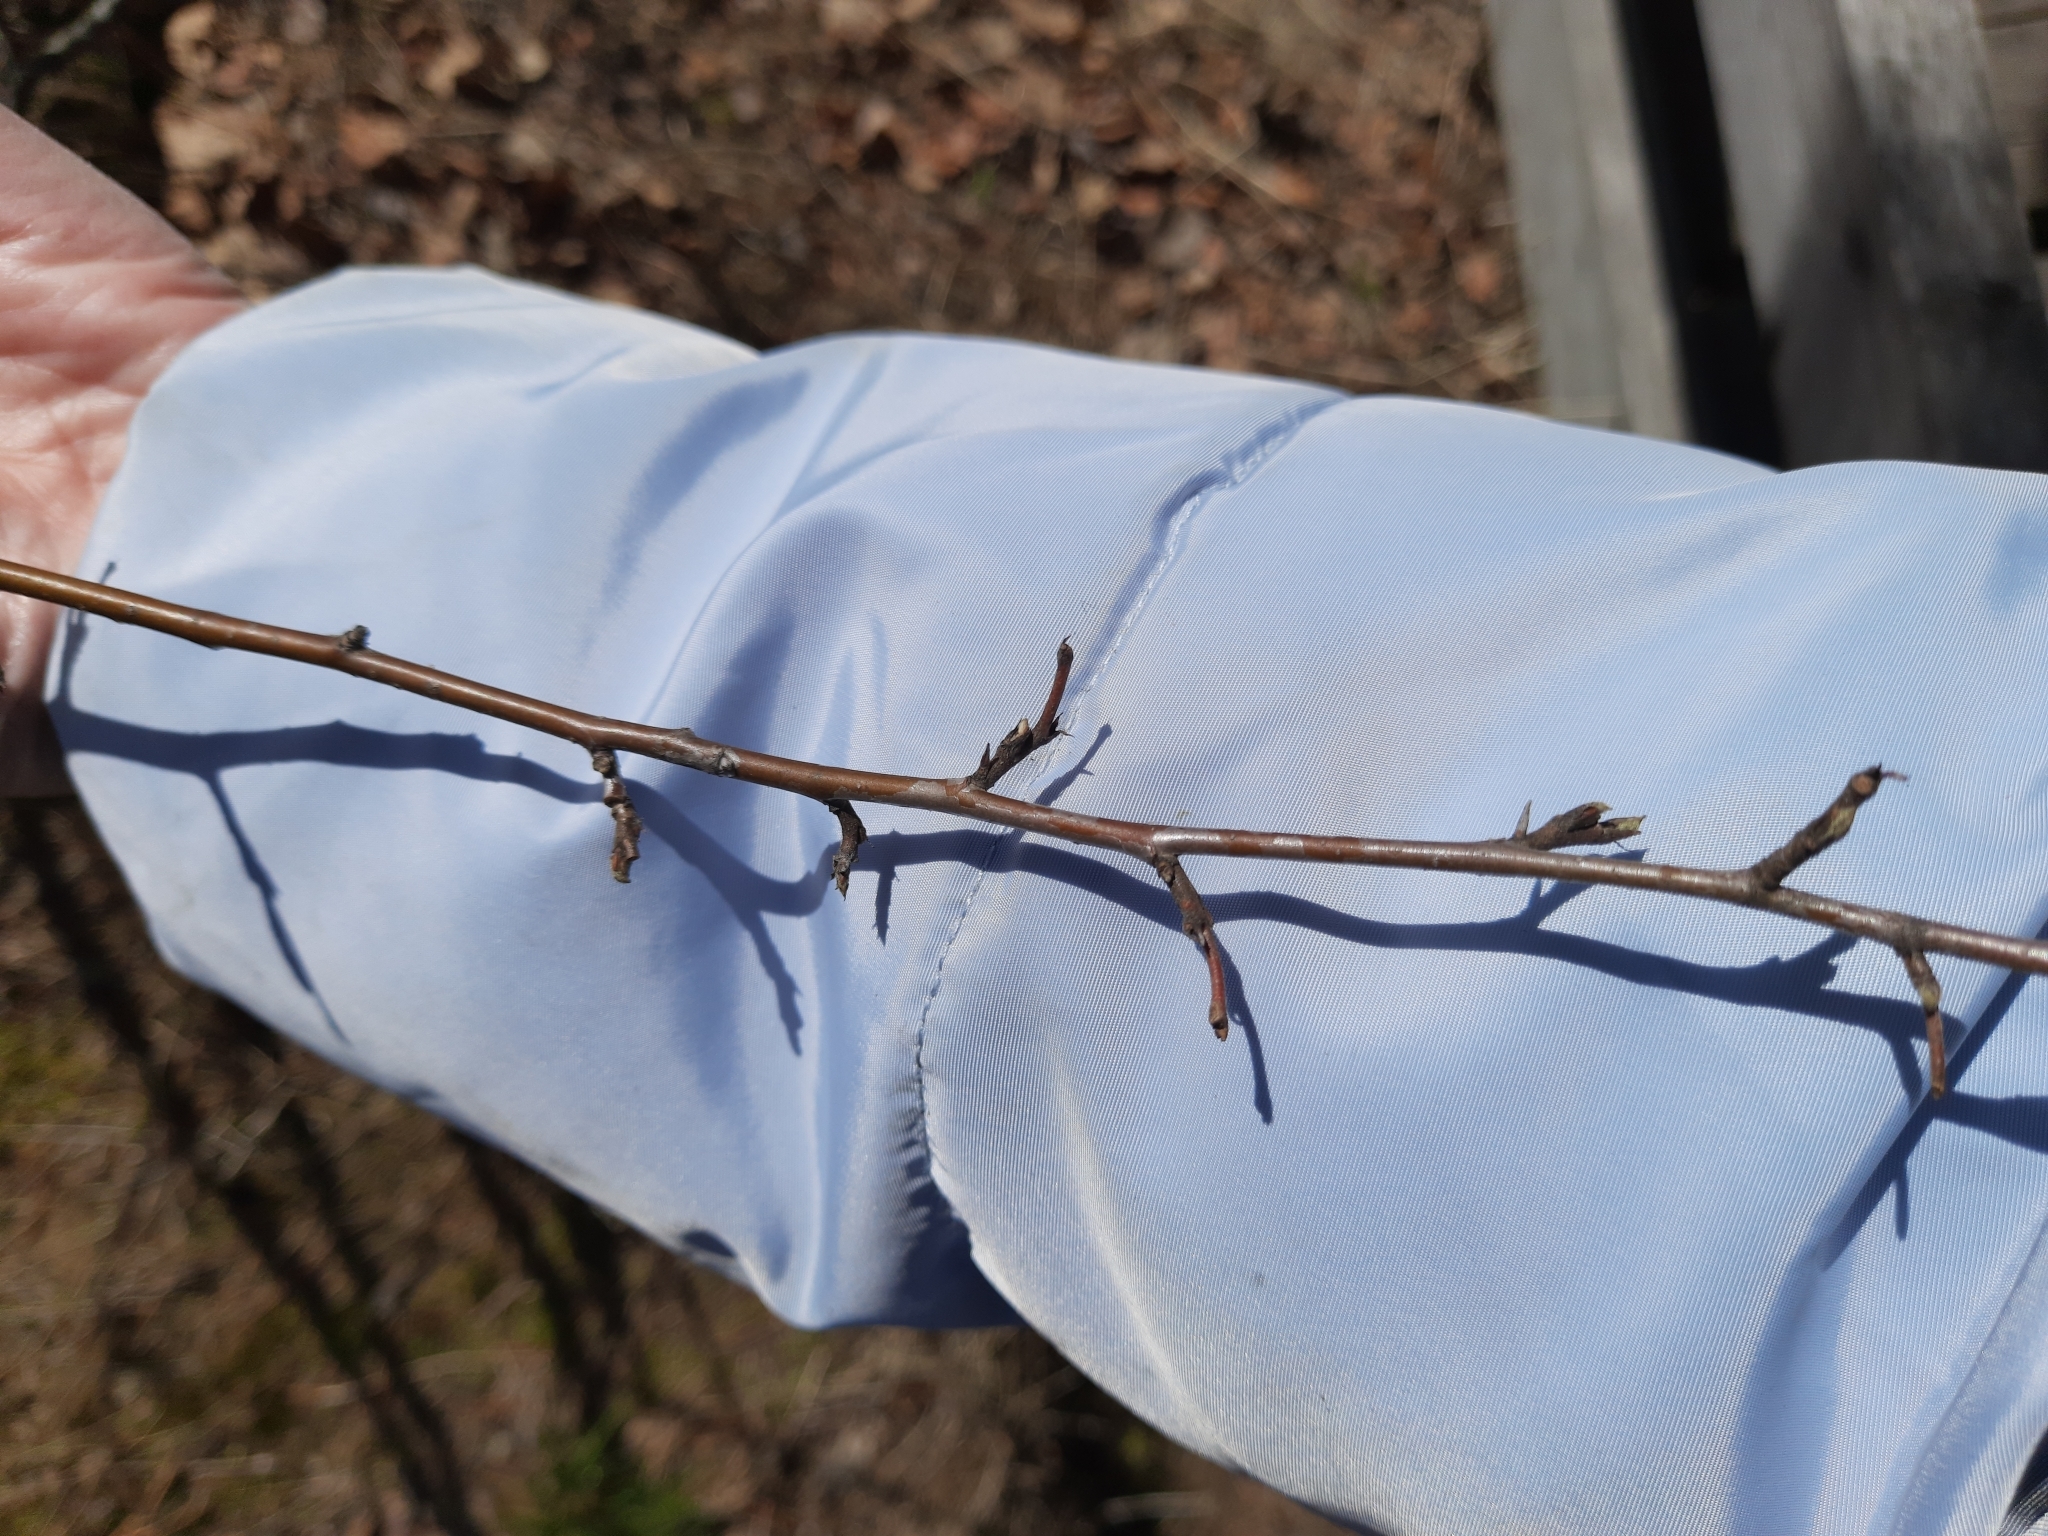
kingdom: Plantae
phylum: Tracheophyta
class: Magnoliopsida
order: Rosales
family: Rosaceae
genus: Cotoneaster
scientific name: Cotoneaster melanocarpus
